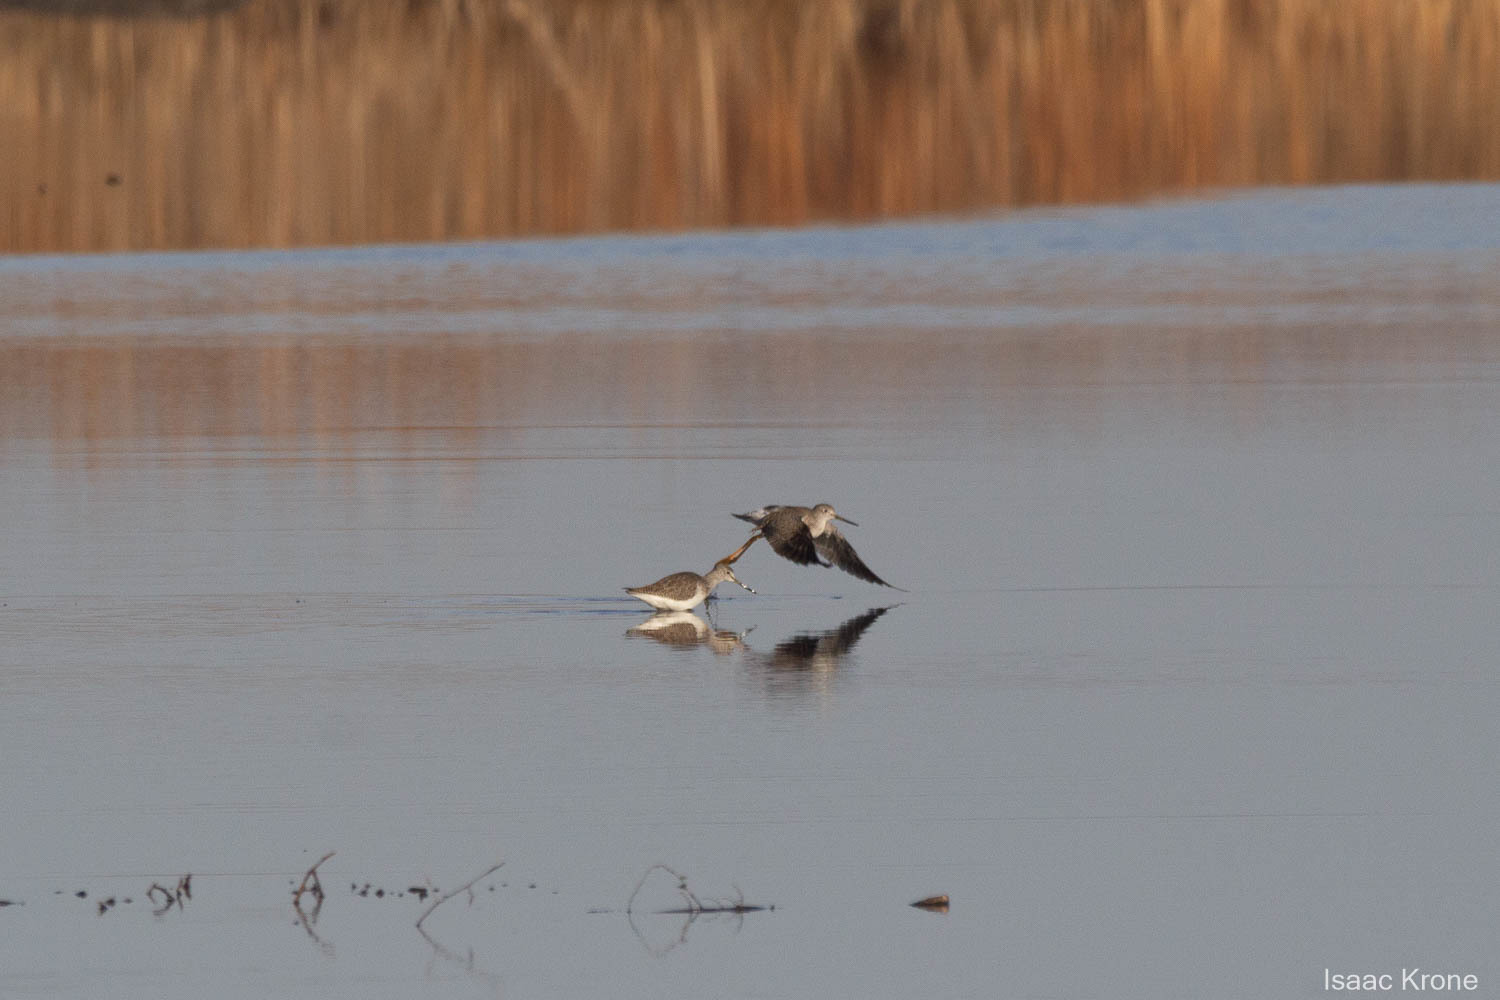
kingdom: Animalia
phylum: Chordata
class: Aves
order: Charadriiformes
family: Scolopacidae
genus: Tringa
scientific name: Tringa melanoleuca
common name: Greater yellowlegs
